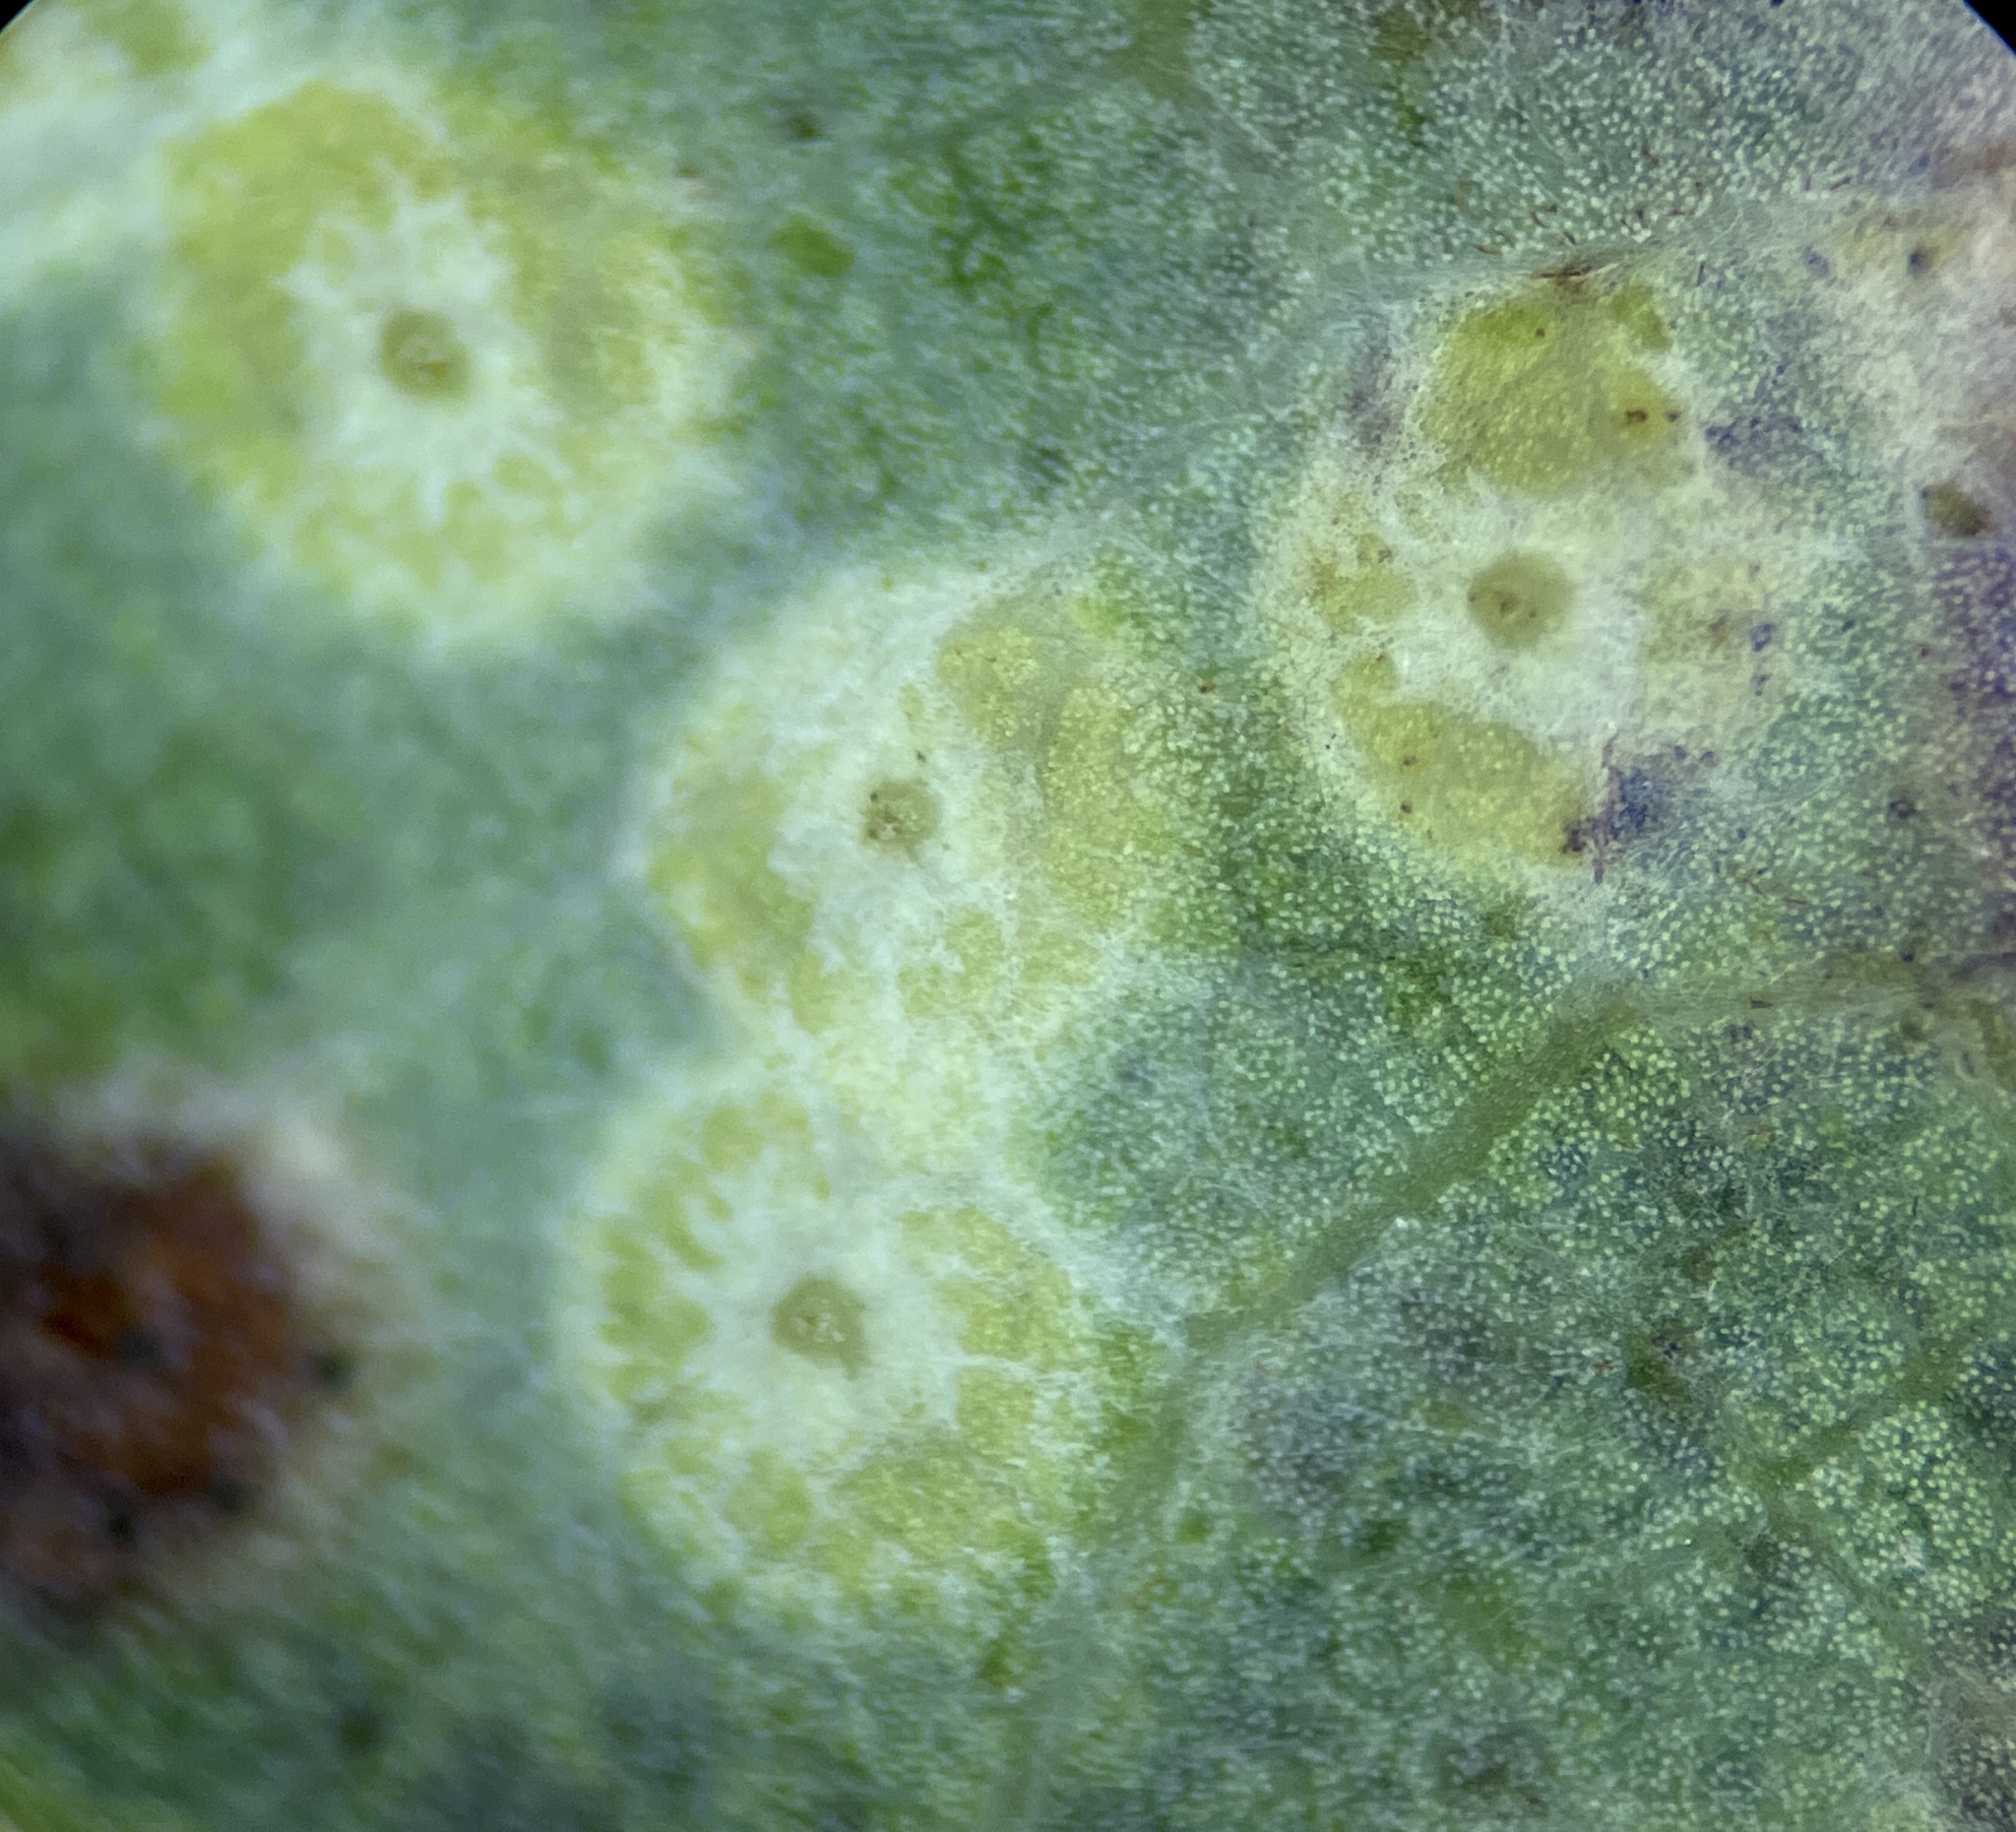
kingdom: Animalia
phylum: Arthropoda
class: Insecta
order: Hymenoptera
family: Cynipidae
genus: Neuroterus
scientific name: Neuroterus niger
